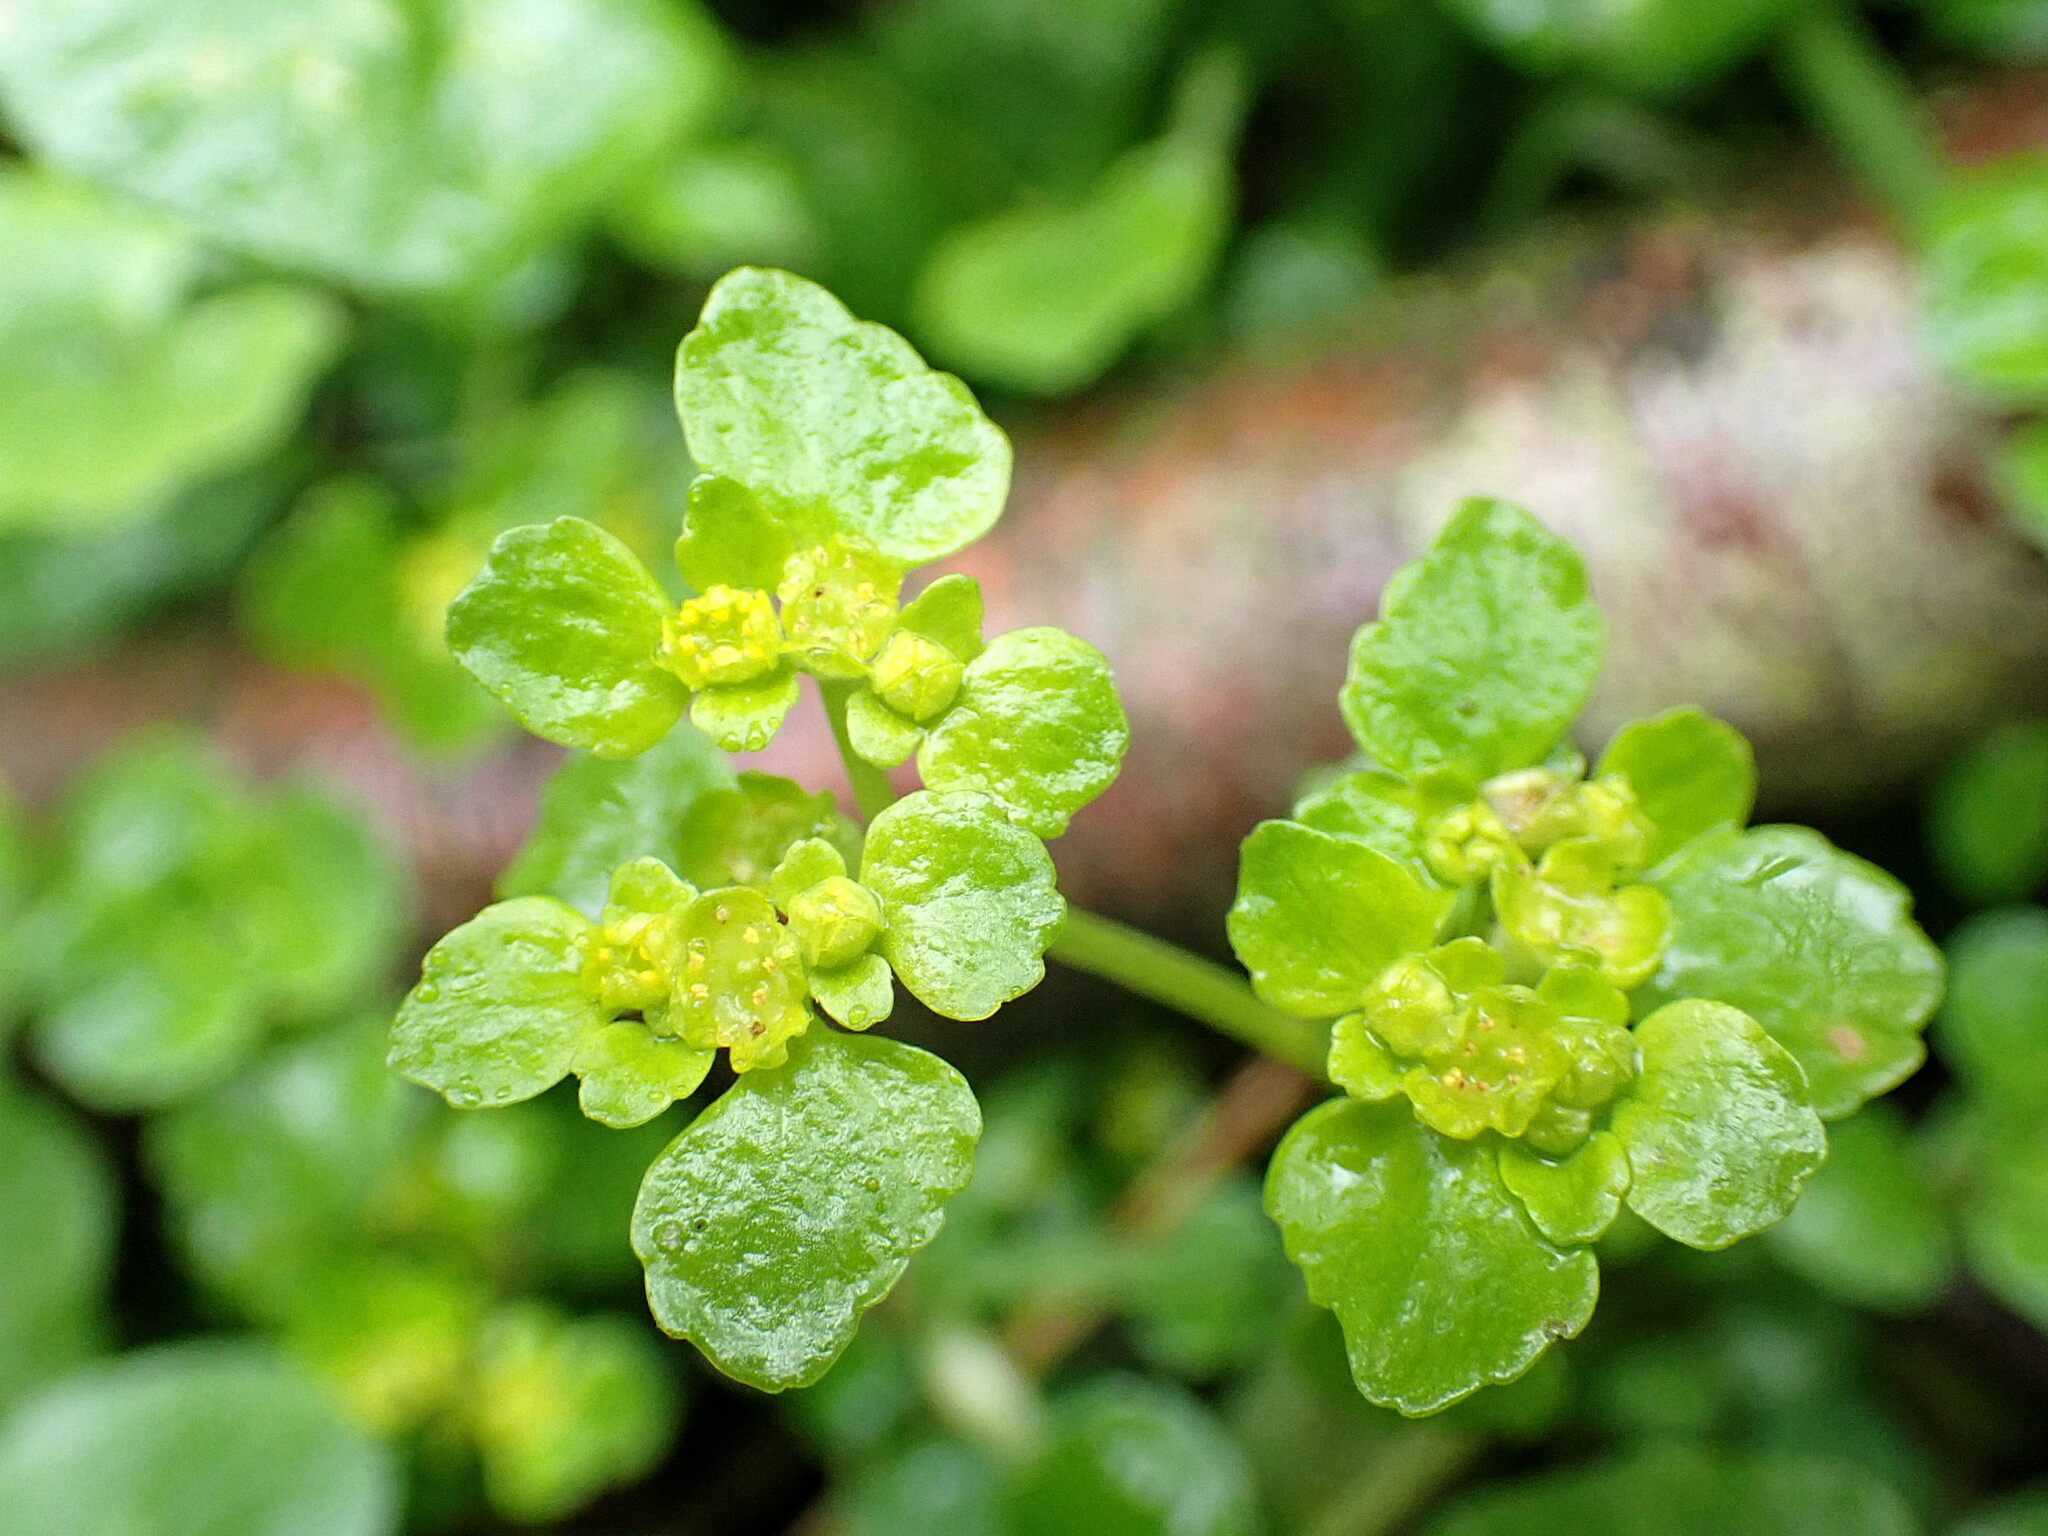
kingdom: Plantae
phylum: Tracheophyta
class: Magnoliopsida
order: Saxifragales
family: Saxifragaceae
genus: Chrysosplenium
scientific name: Chrysosplenium oppositifolium
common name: Opposite-leaved golden-saxifrage
